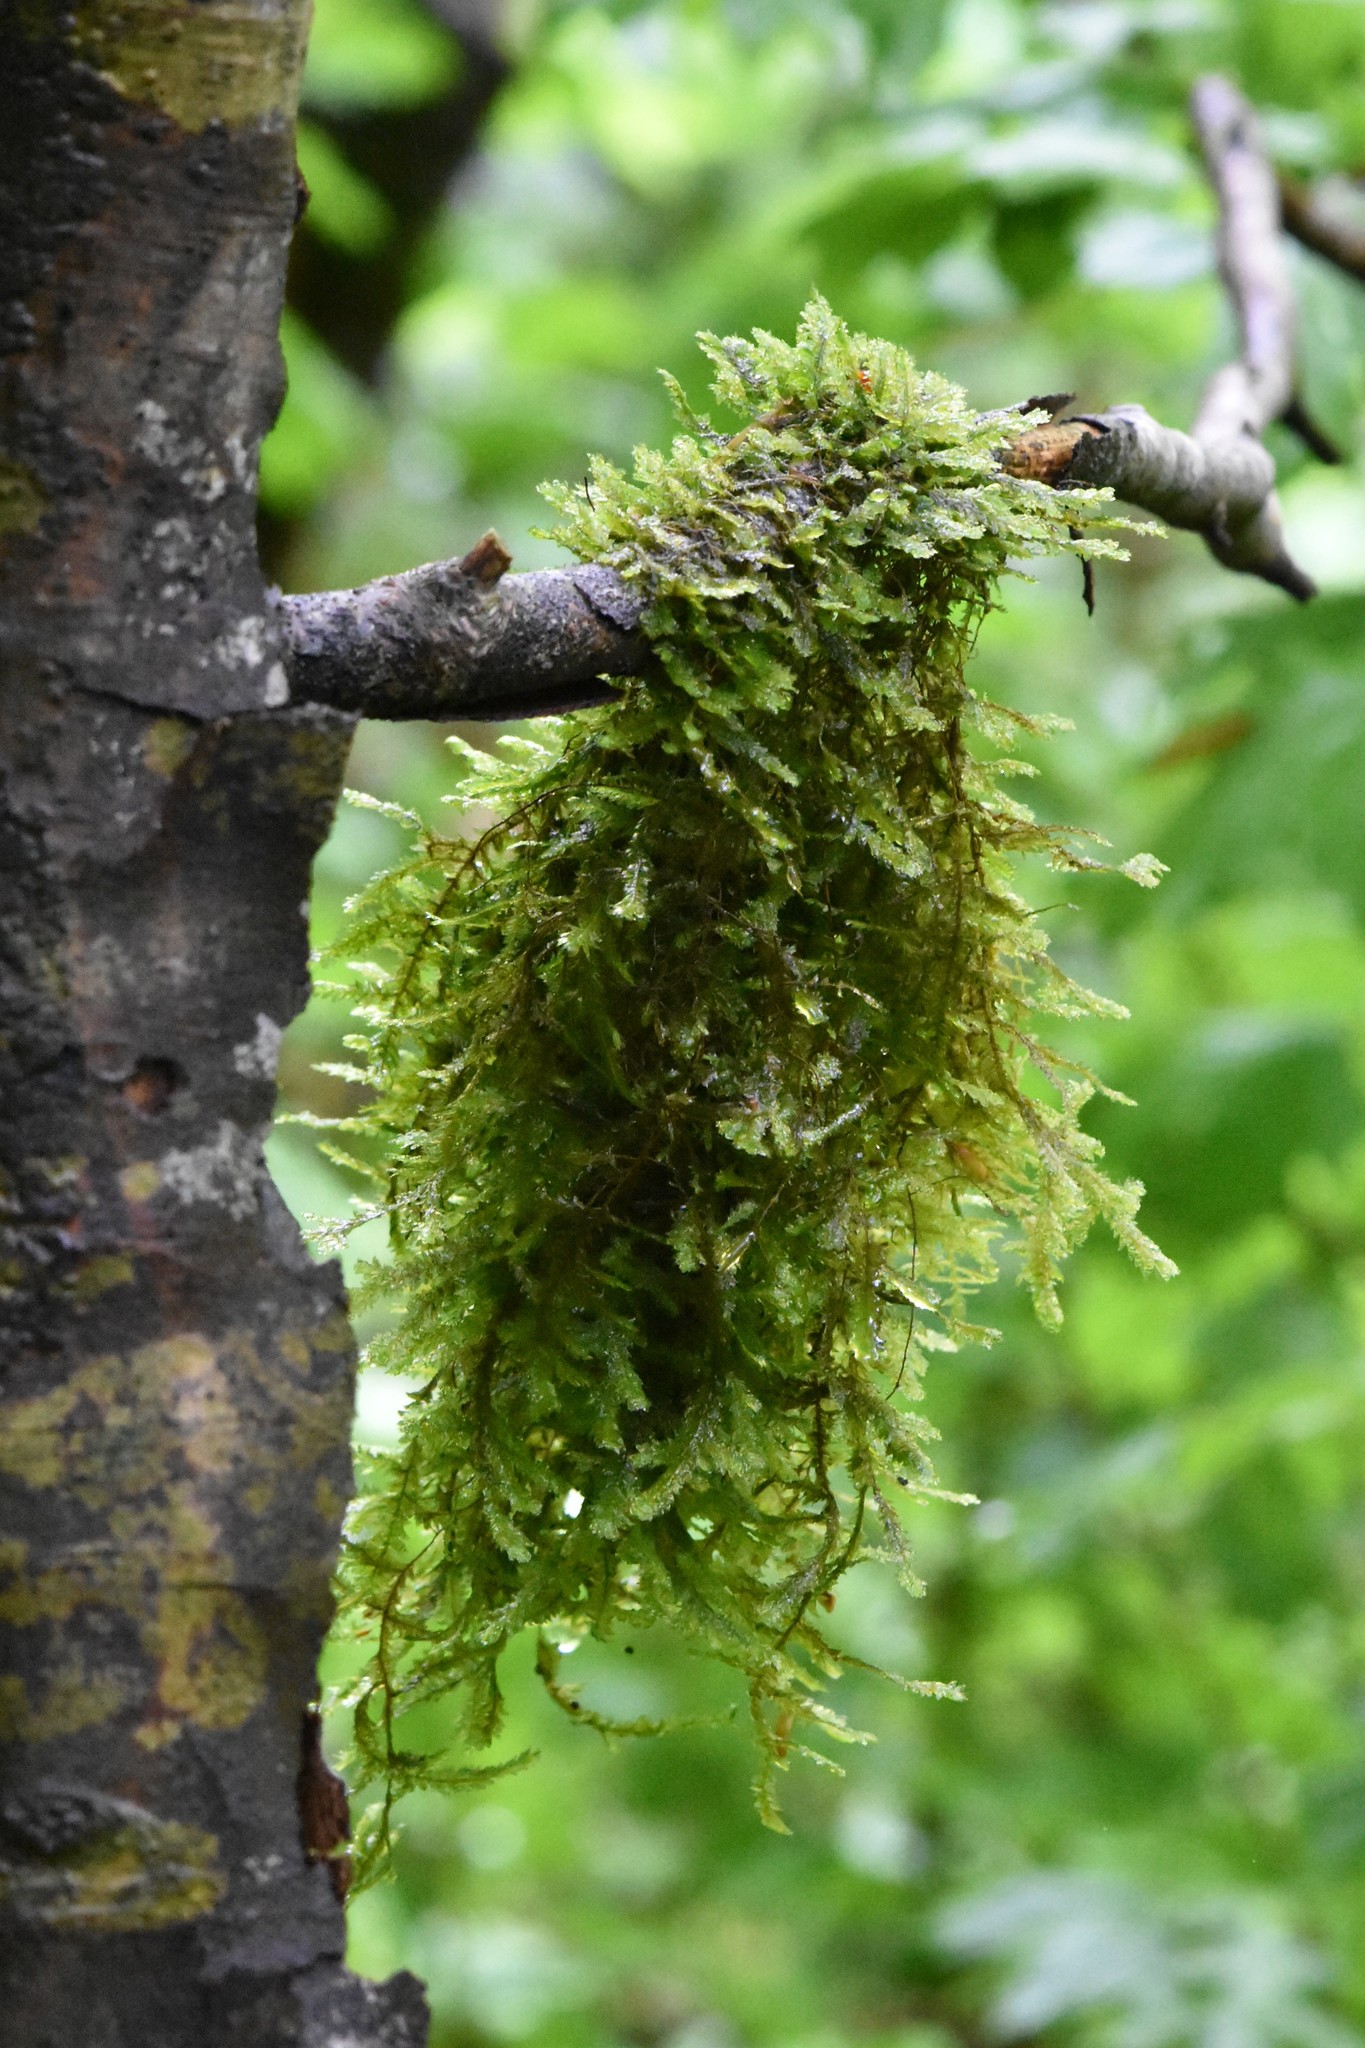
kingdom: Plantae
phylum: Bryophyta
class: Bryopsida
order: Hypnales
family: Neckeraceae
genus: Exsertotheca
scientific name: Exsertotheca crispa
